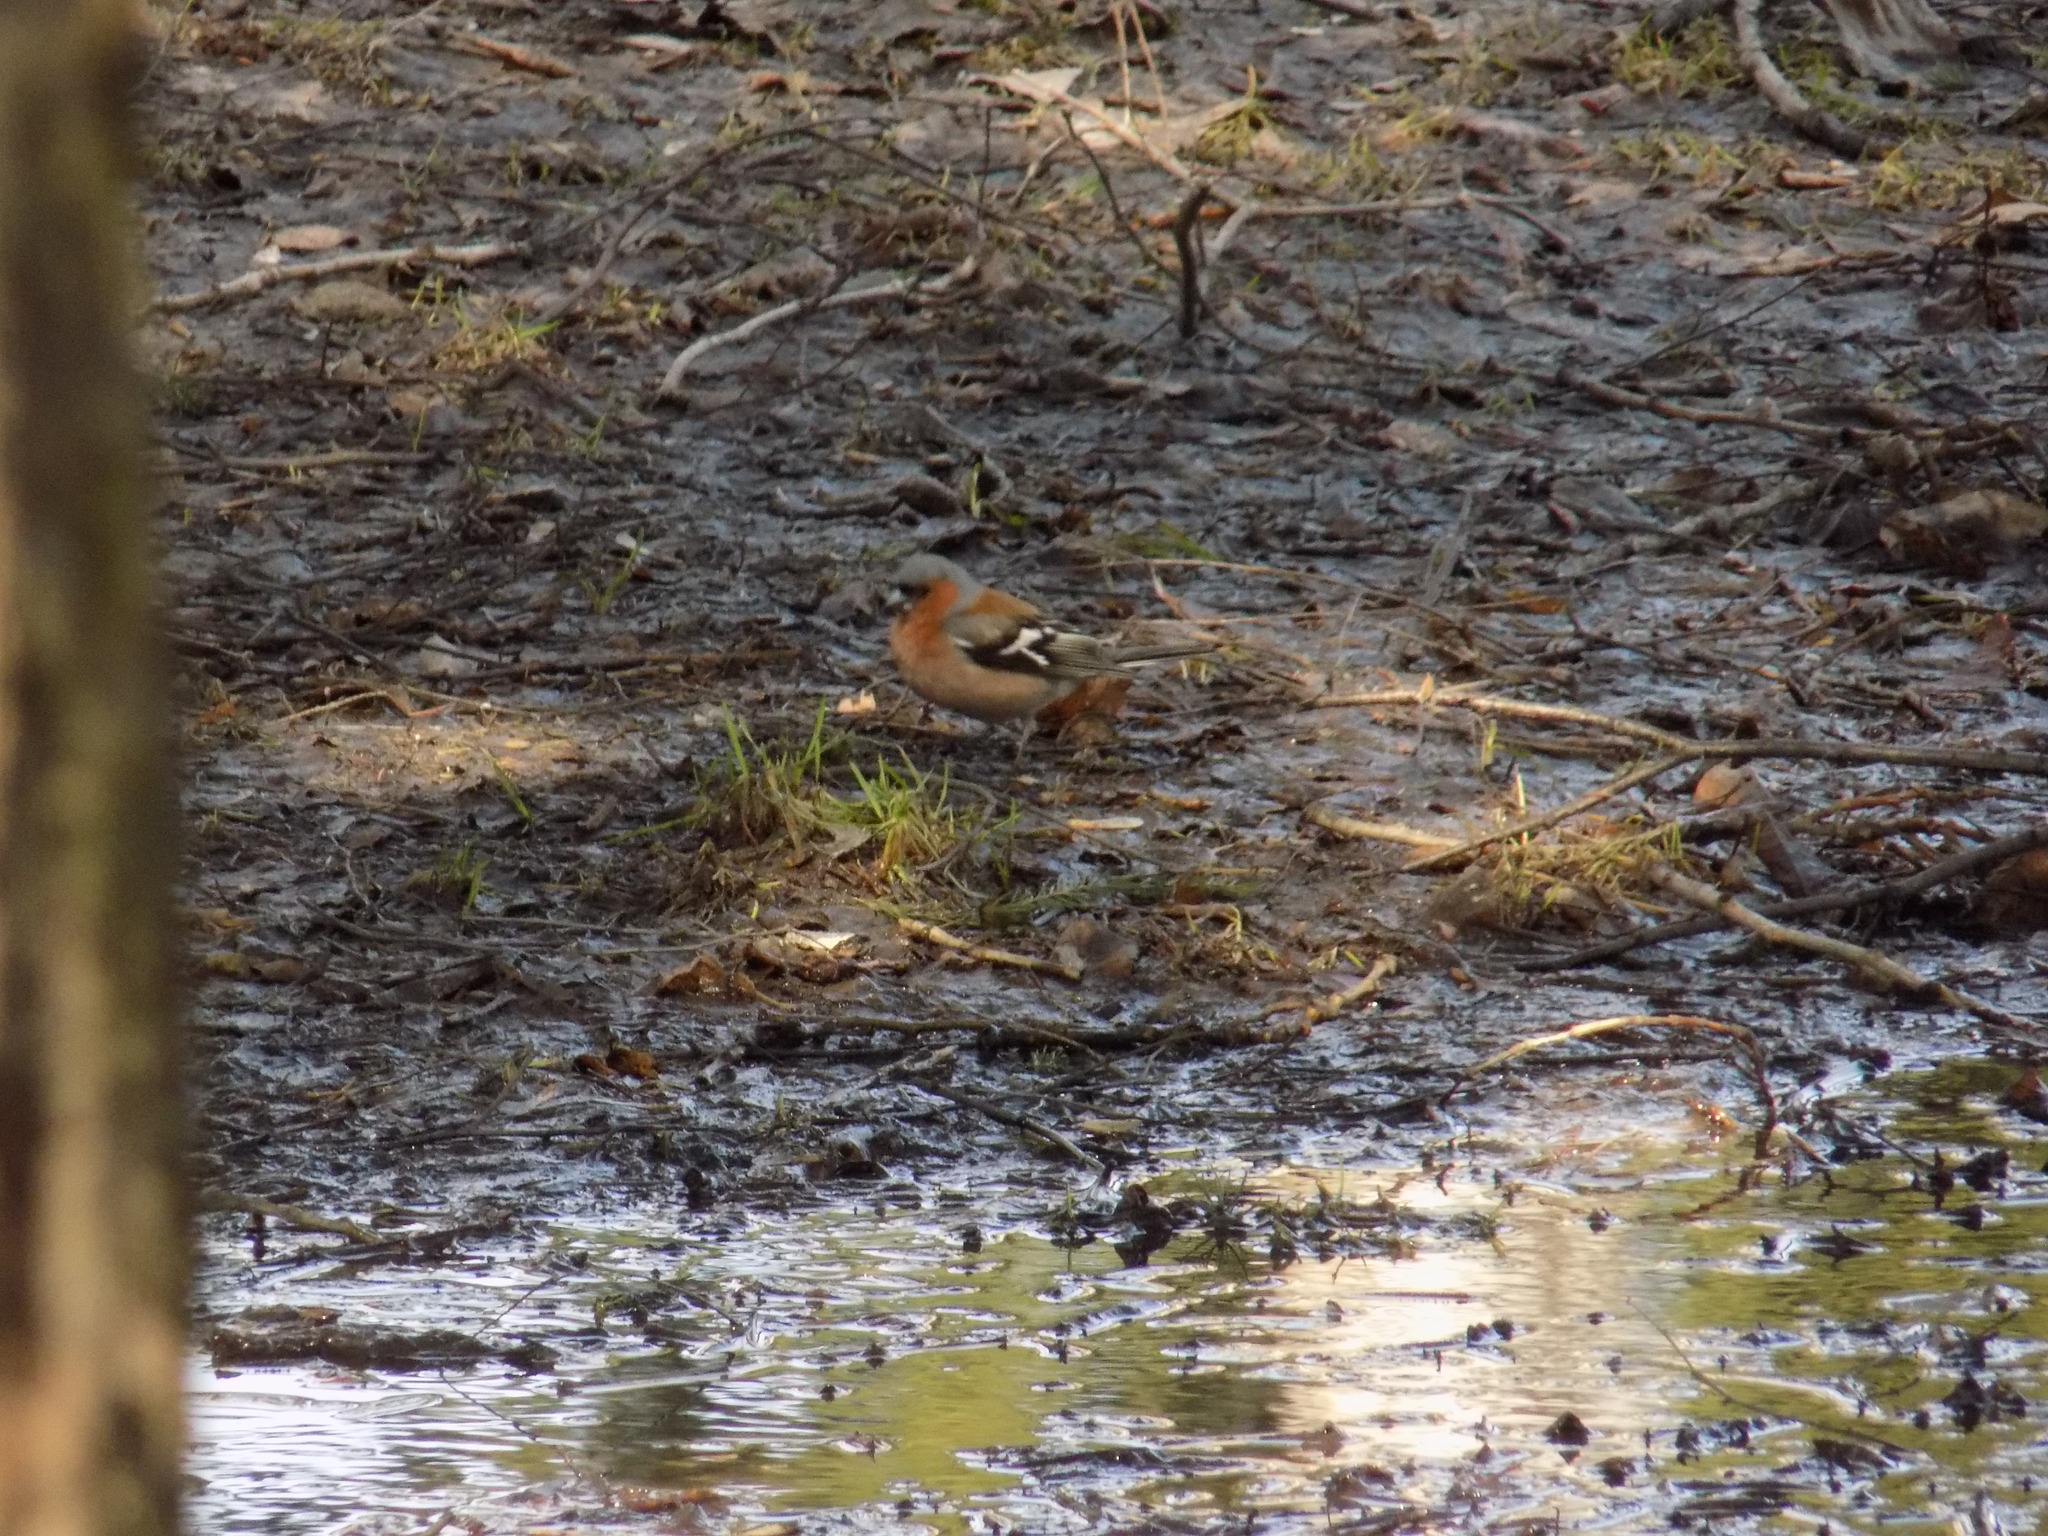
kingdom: Animalia
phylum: Chordata
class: Aves
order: Passeriformes
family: Fringillidae
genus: Fringilla
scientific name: Fringilla coelebs
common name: Common chaffinch
